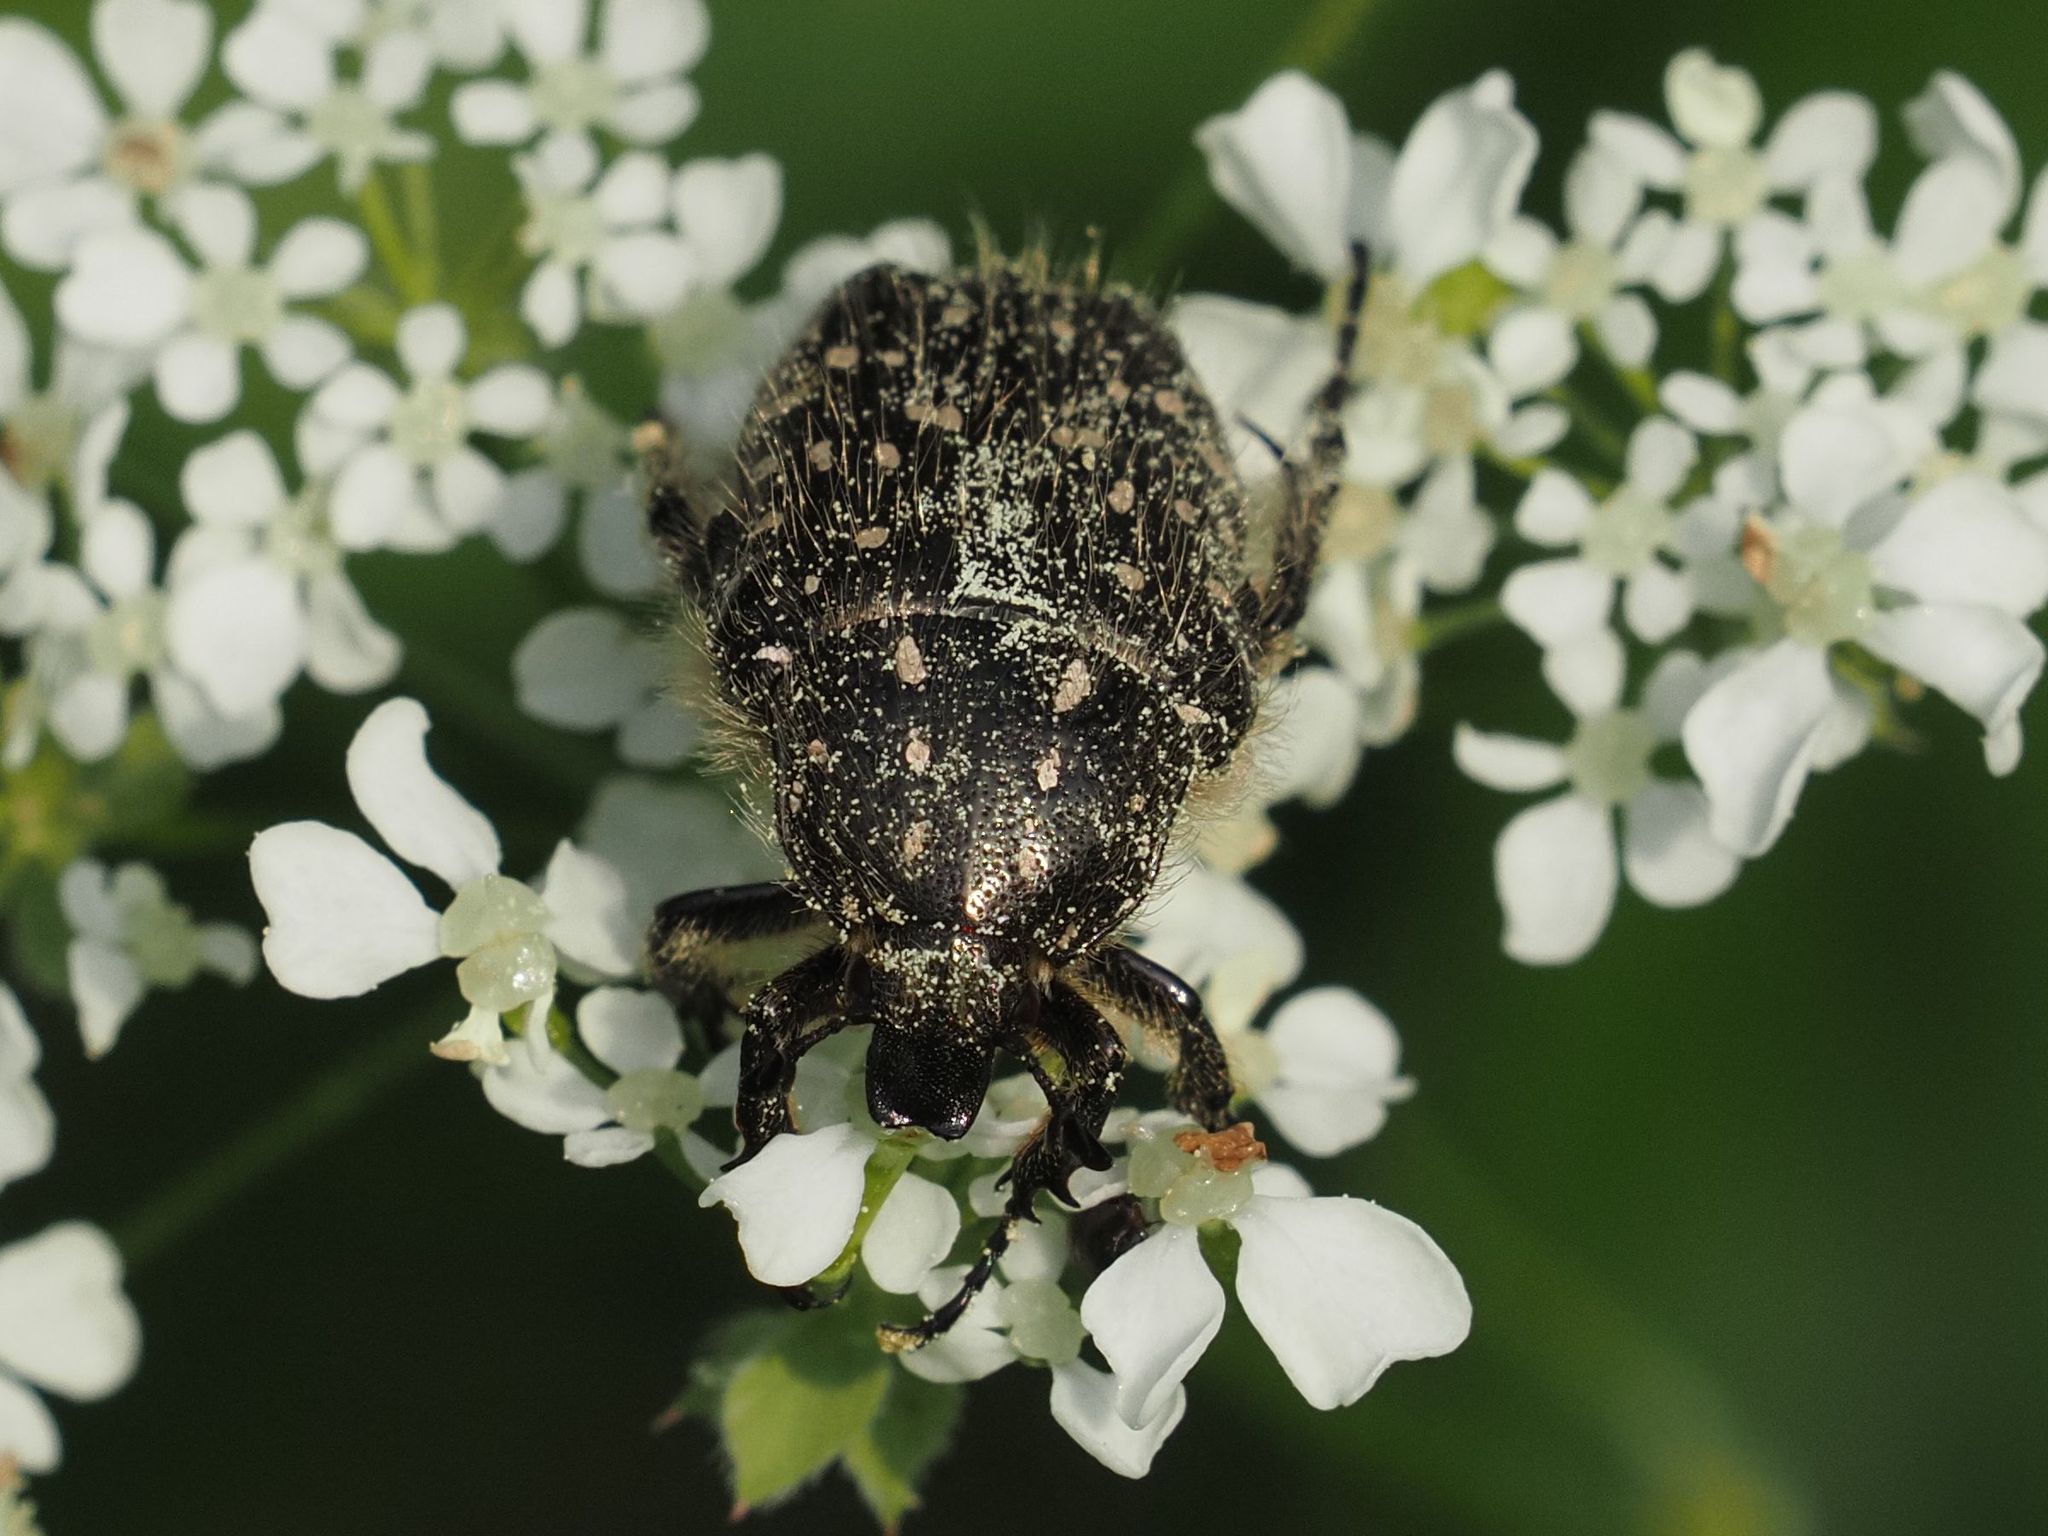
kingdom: Animalia
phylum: Arthropoda
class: Insecta
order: Coleoptera
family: Scarabaeidae
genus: Oxythyrea
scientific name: Oxythyrea funesta
